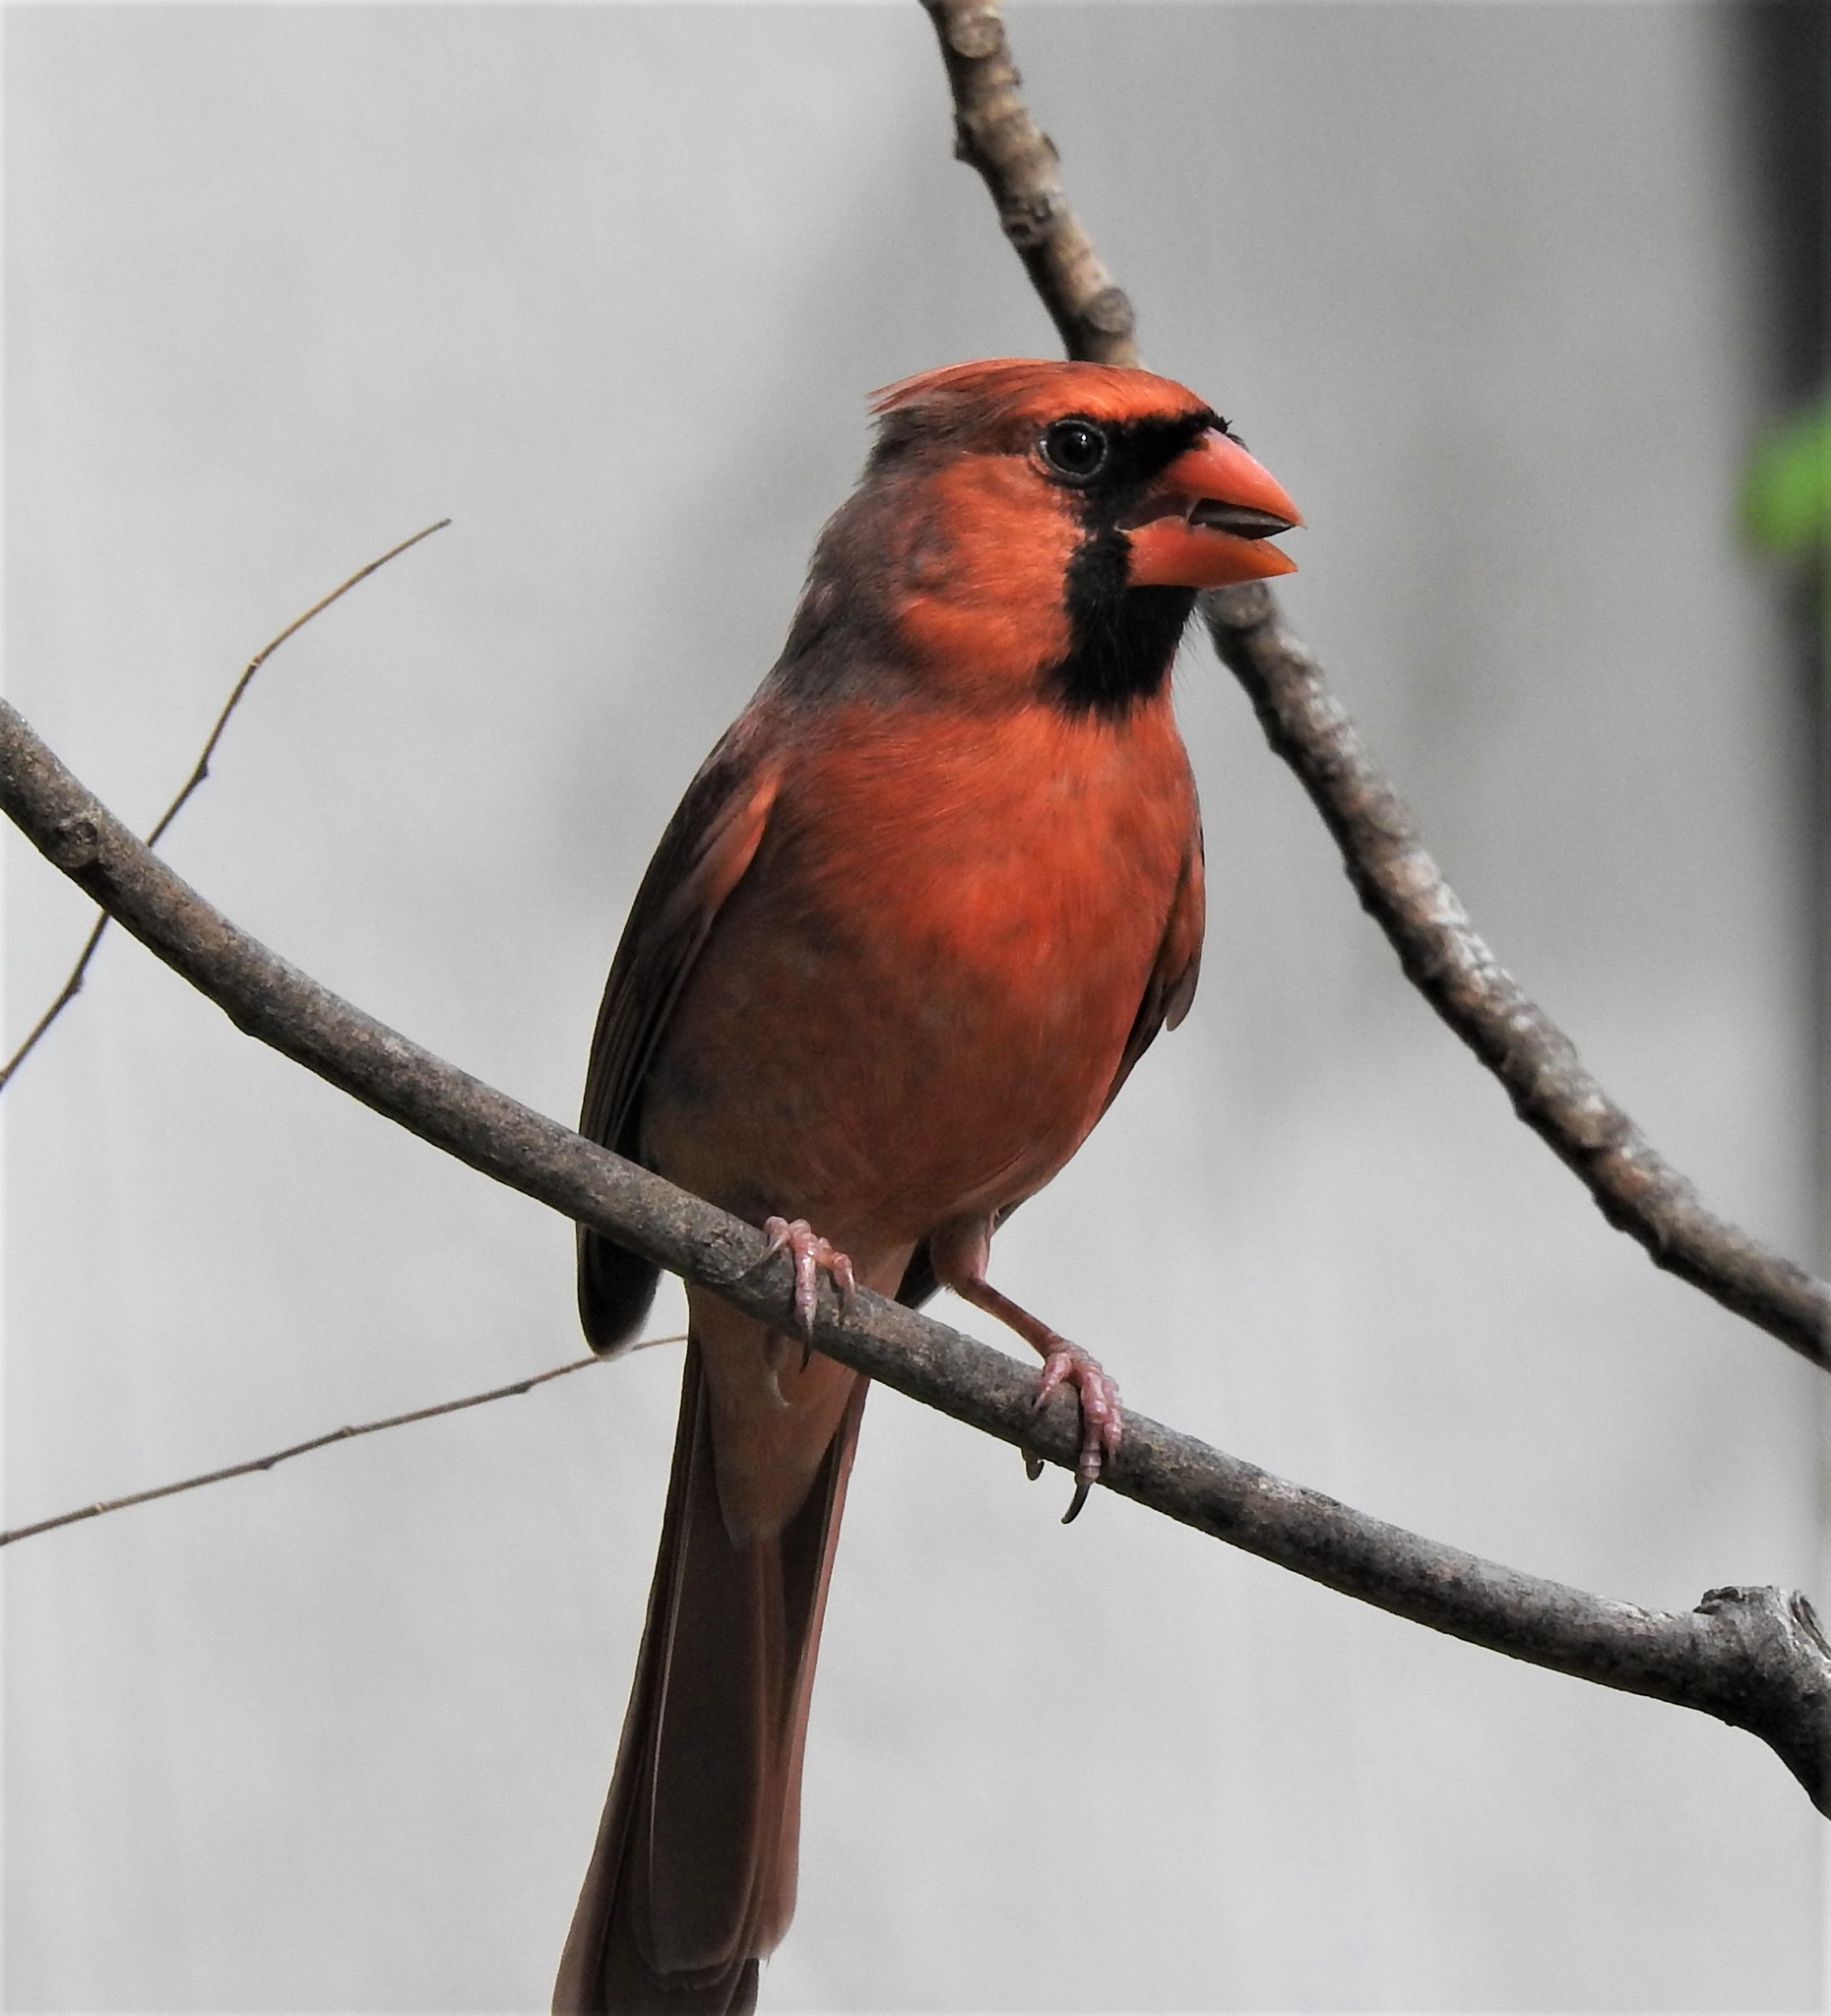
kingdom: Animalia
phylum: Chordata
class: Aves
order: Passeriformes
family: Cardinalidae
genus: Cardinalis
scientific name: Cardinalis cardinalis
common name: Northern cardinal
